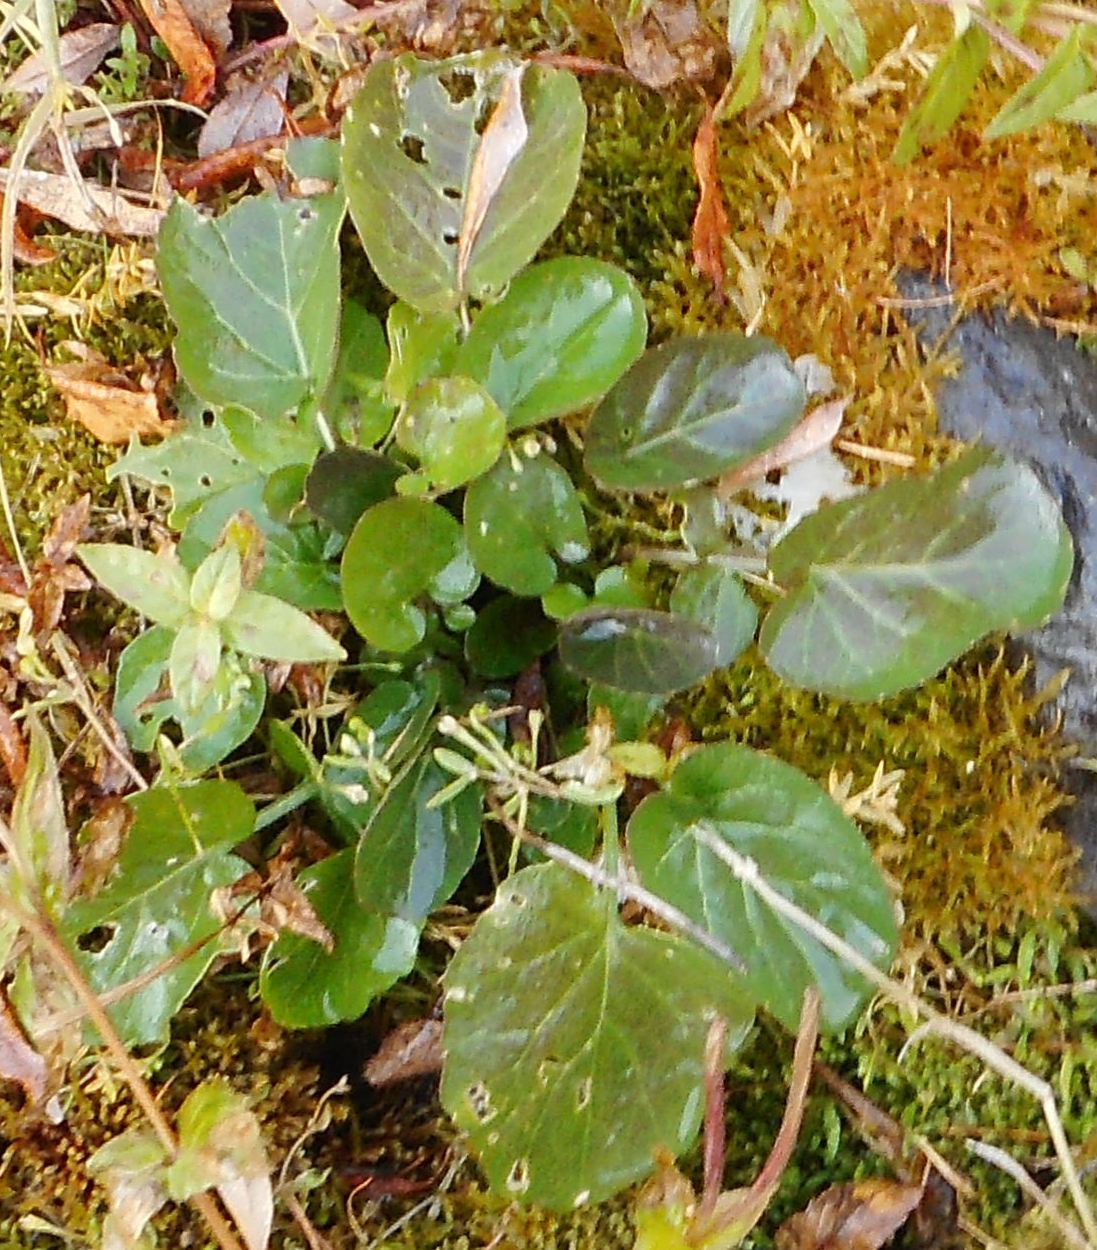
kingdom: Plantae
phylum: Tracheophyta
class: Magnoliopsida
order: Brassicales
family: Brassicaceae
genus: Barbarea
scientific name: Barbarea orthoceras
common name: American wintercress
